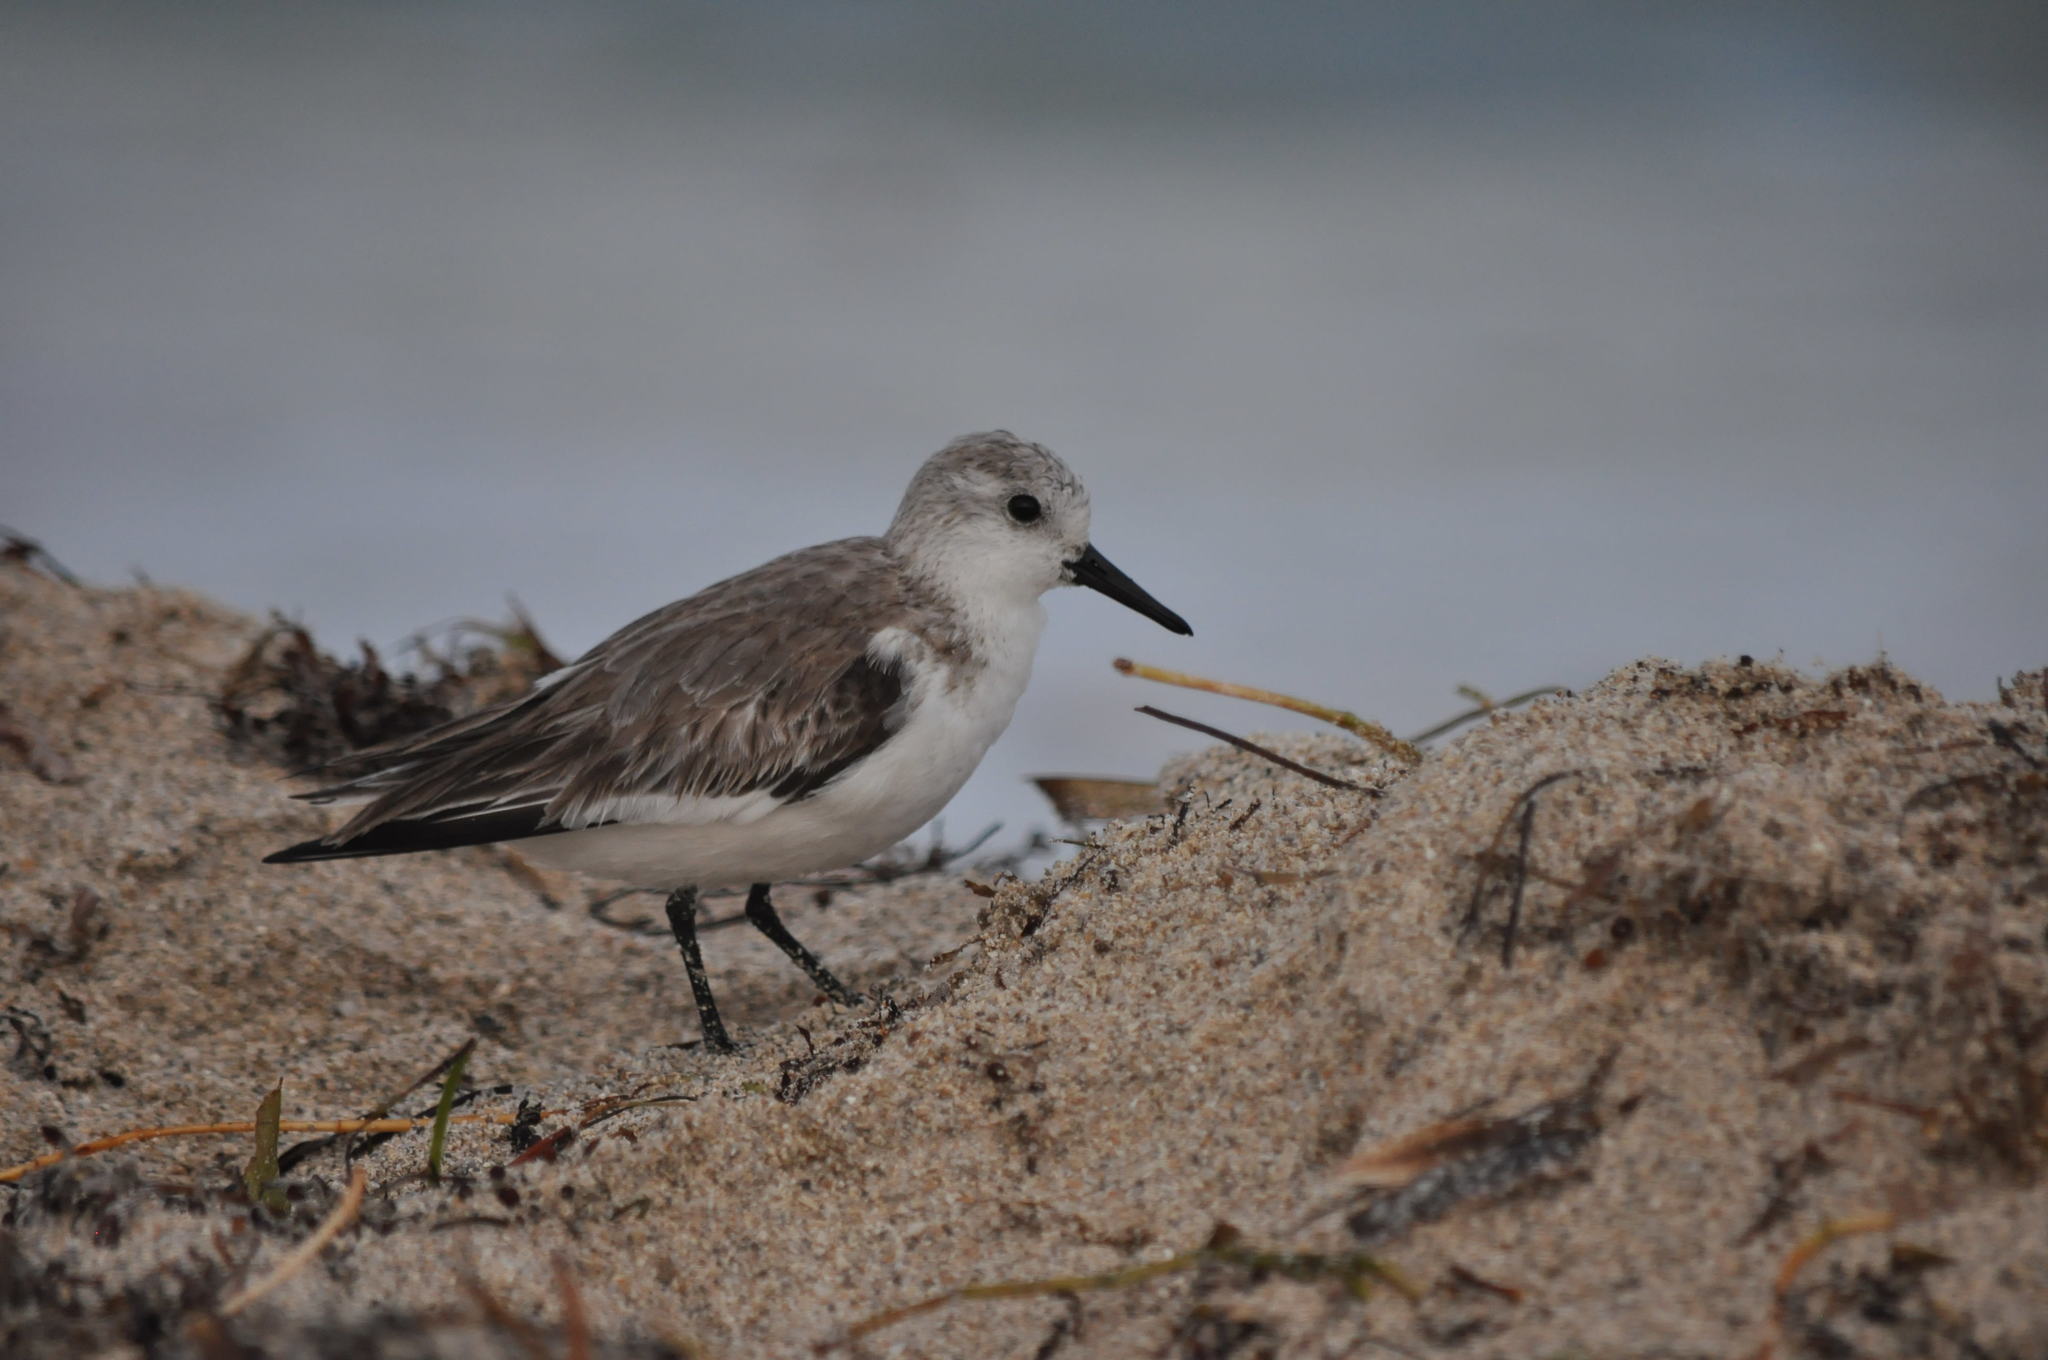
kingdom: Animalia
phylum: Chordata
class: Aves
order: Charadriiformes
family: Scolopacidae
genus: Calidris
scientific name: Calidris alba
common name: Sanderling
